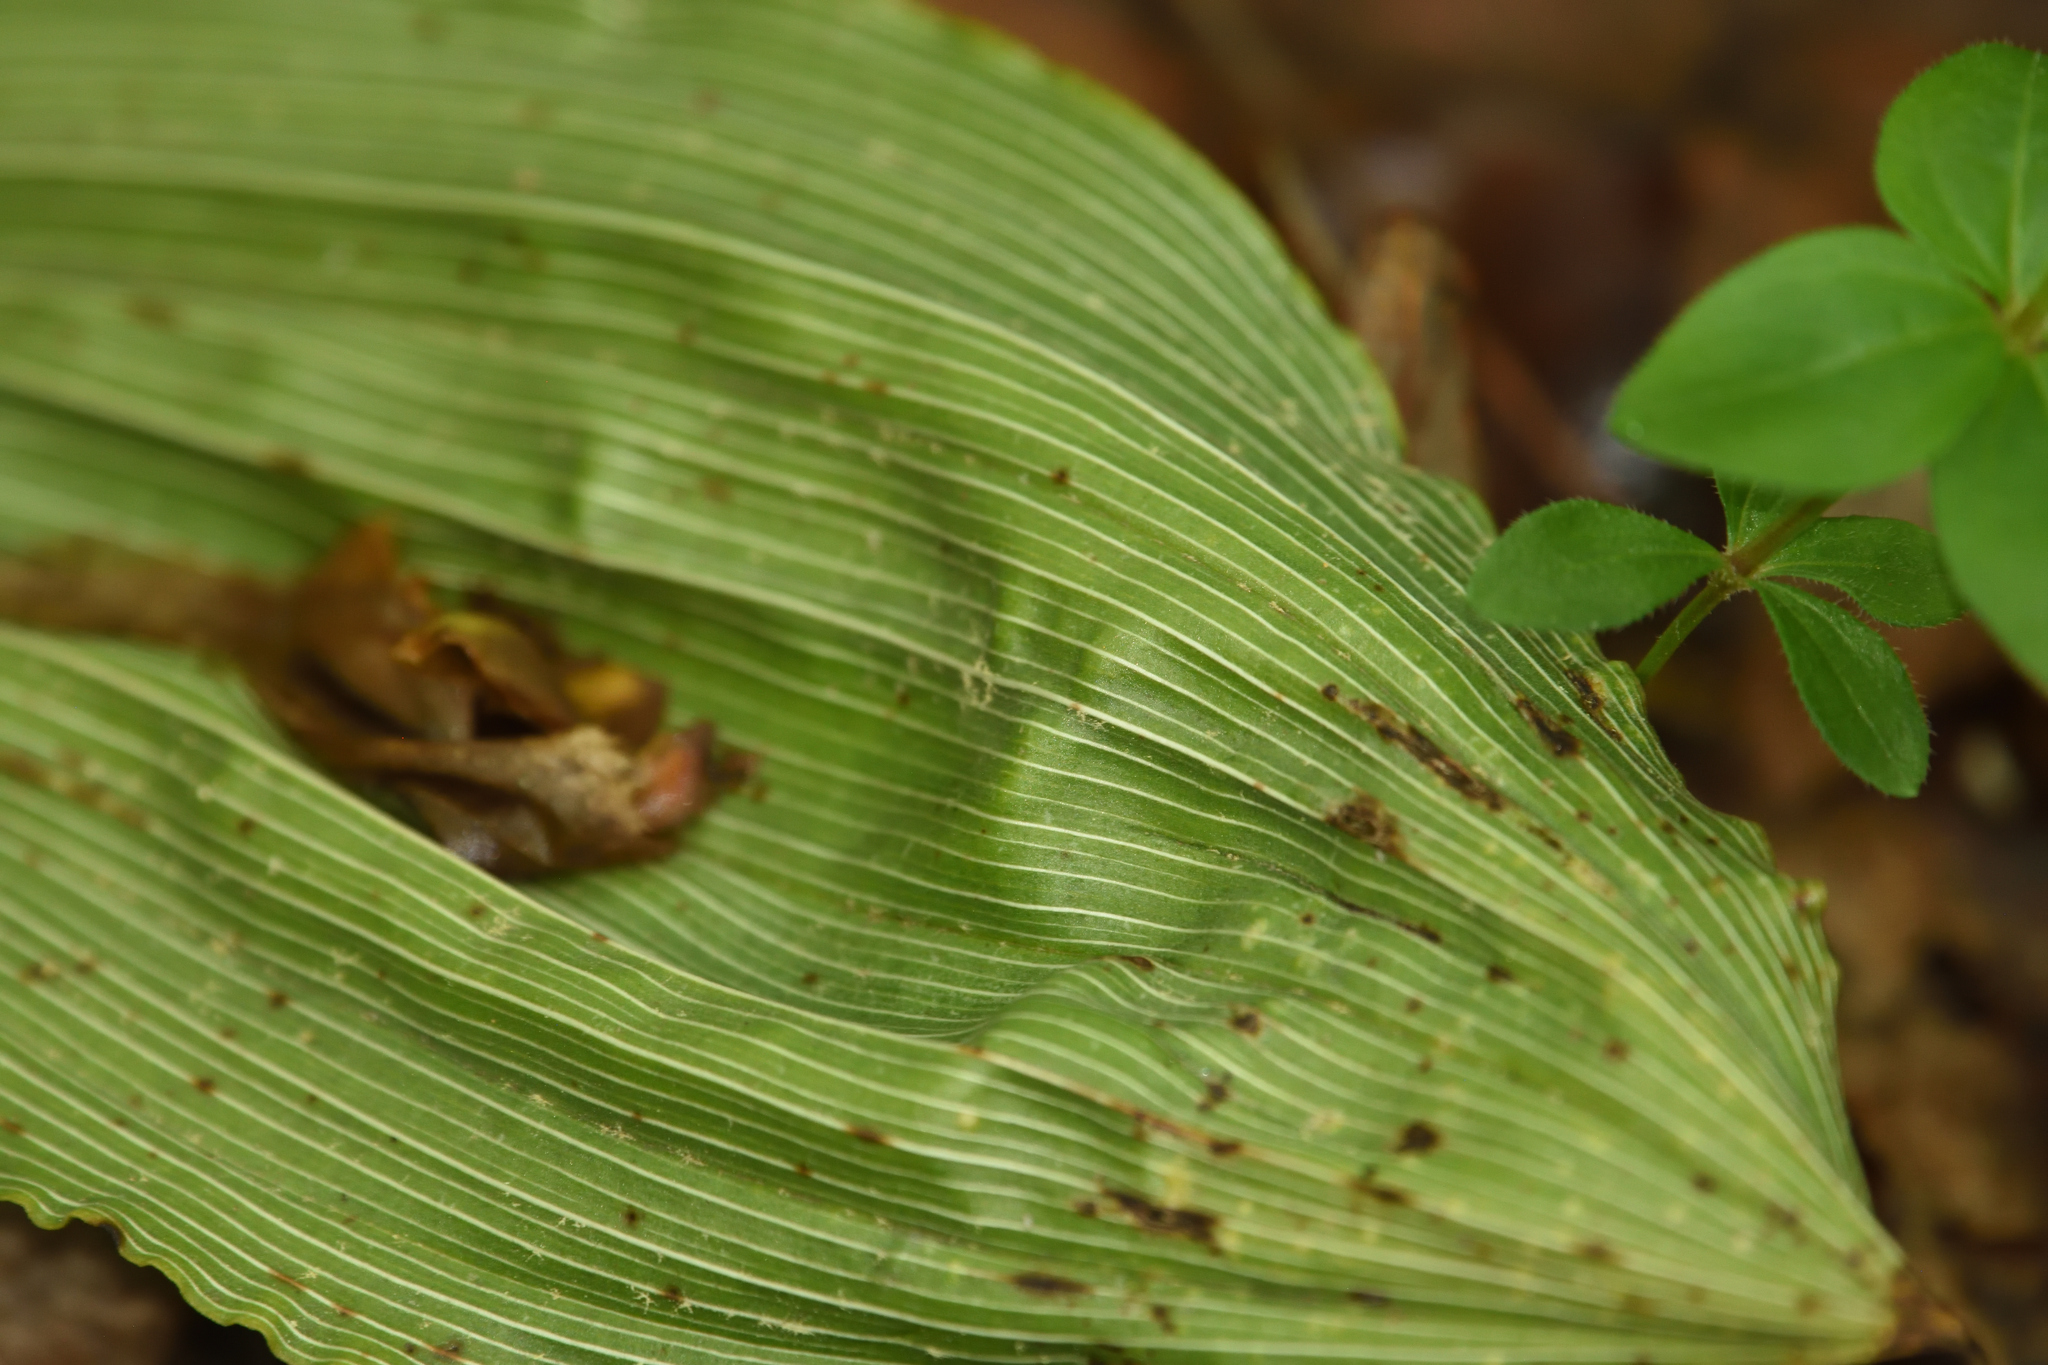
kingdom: Plantae
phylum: Tracheophyta
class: Liliopsida
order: Asparagales
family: Orchidaceae
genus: Aplectrum
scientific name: Aplectrum hyemale
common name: Adam-and-eve
